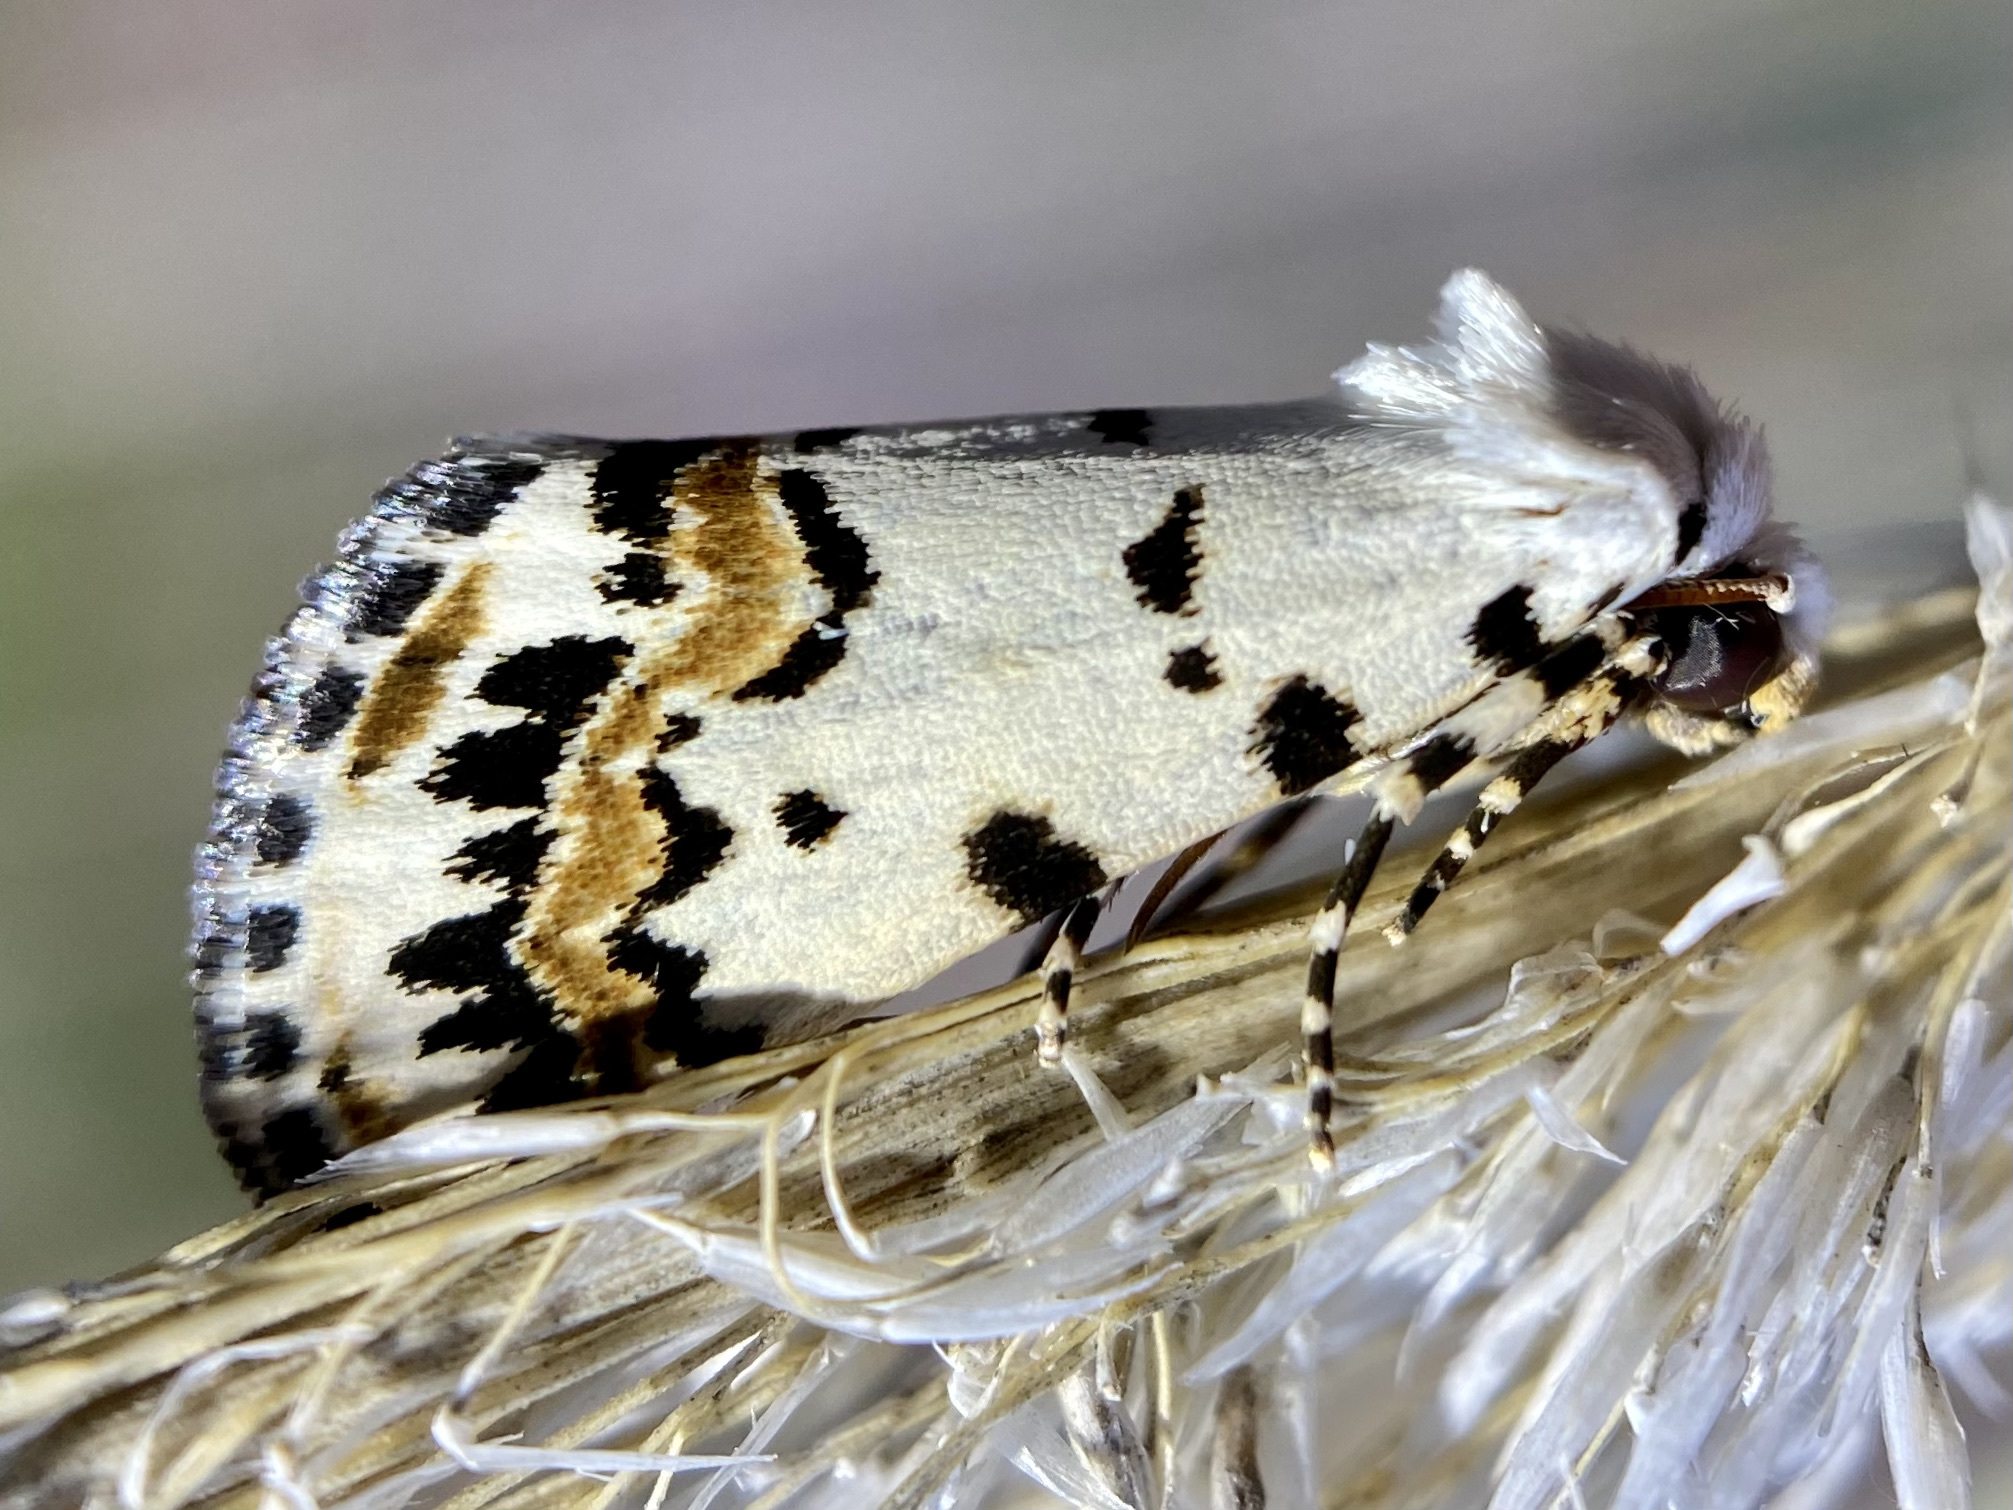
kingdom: Animalia
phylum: Arthropoda
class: Insecta
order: Lepidoptera
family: Noctuidae
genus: Grotella
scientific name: Grotella tricolor
